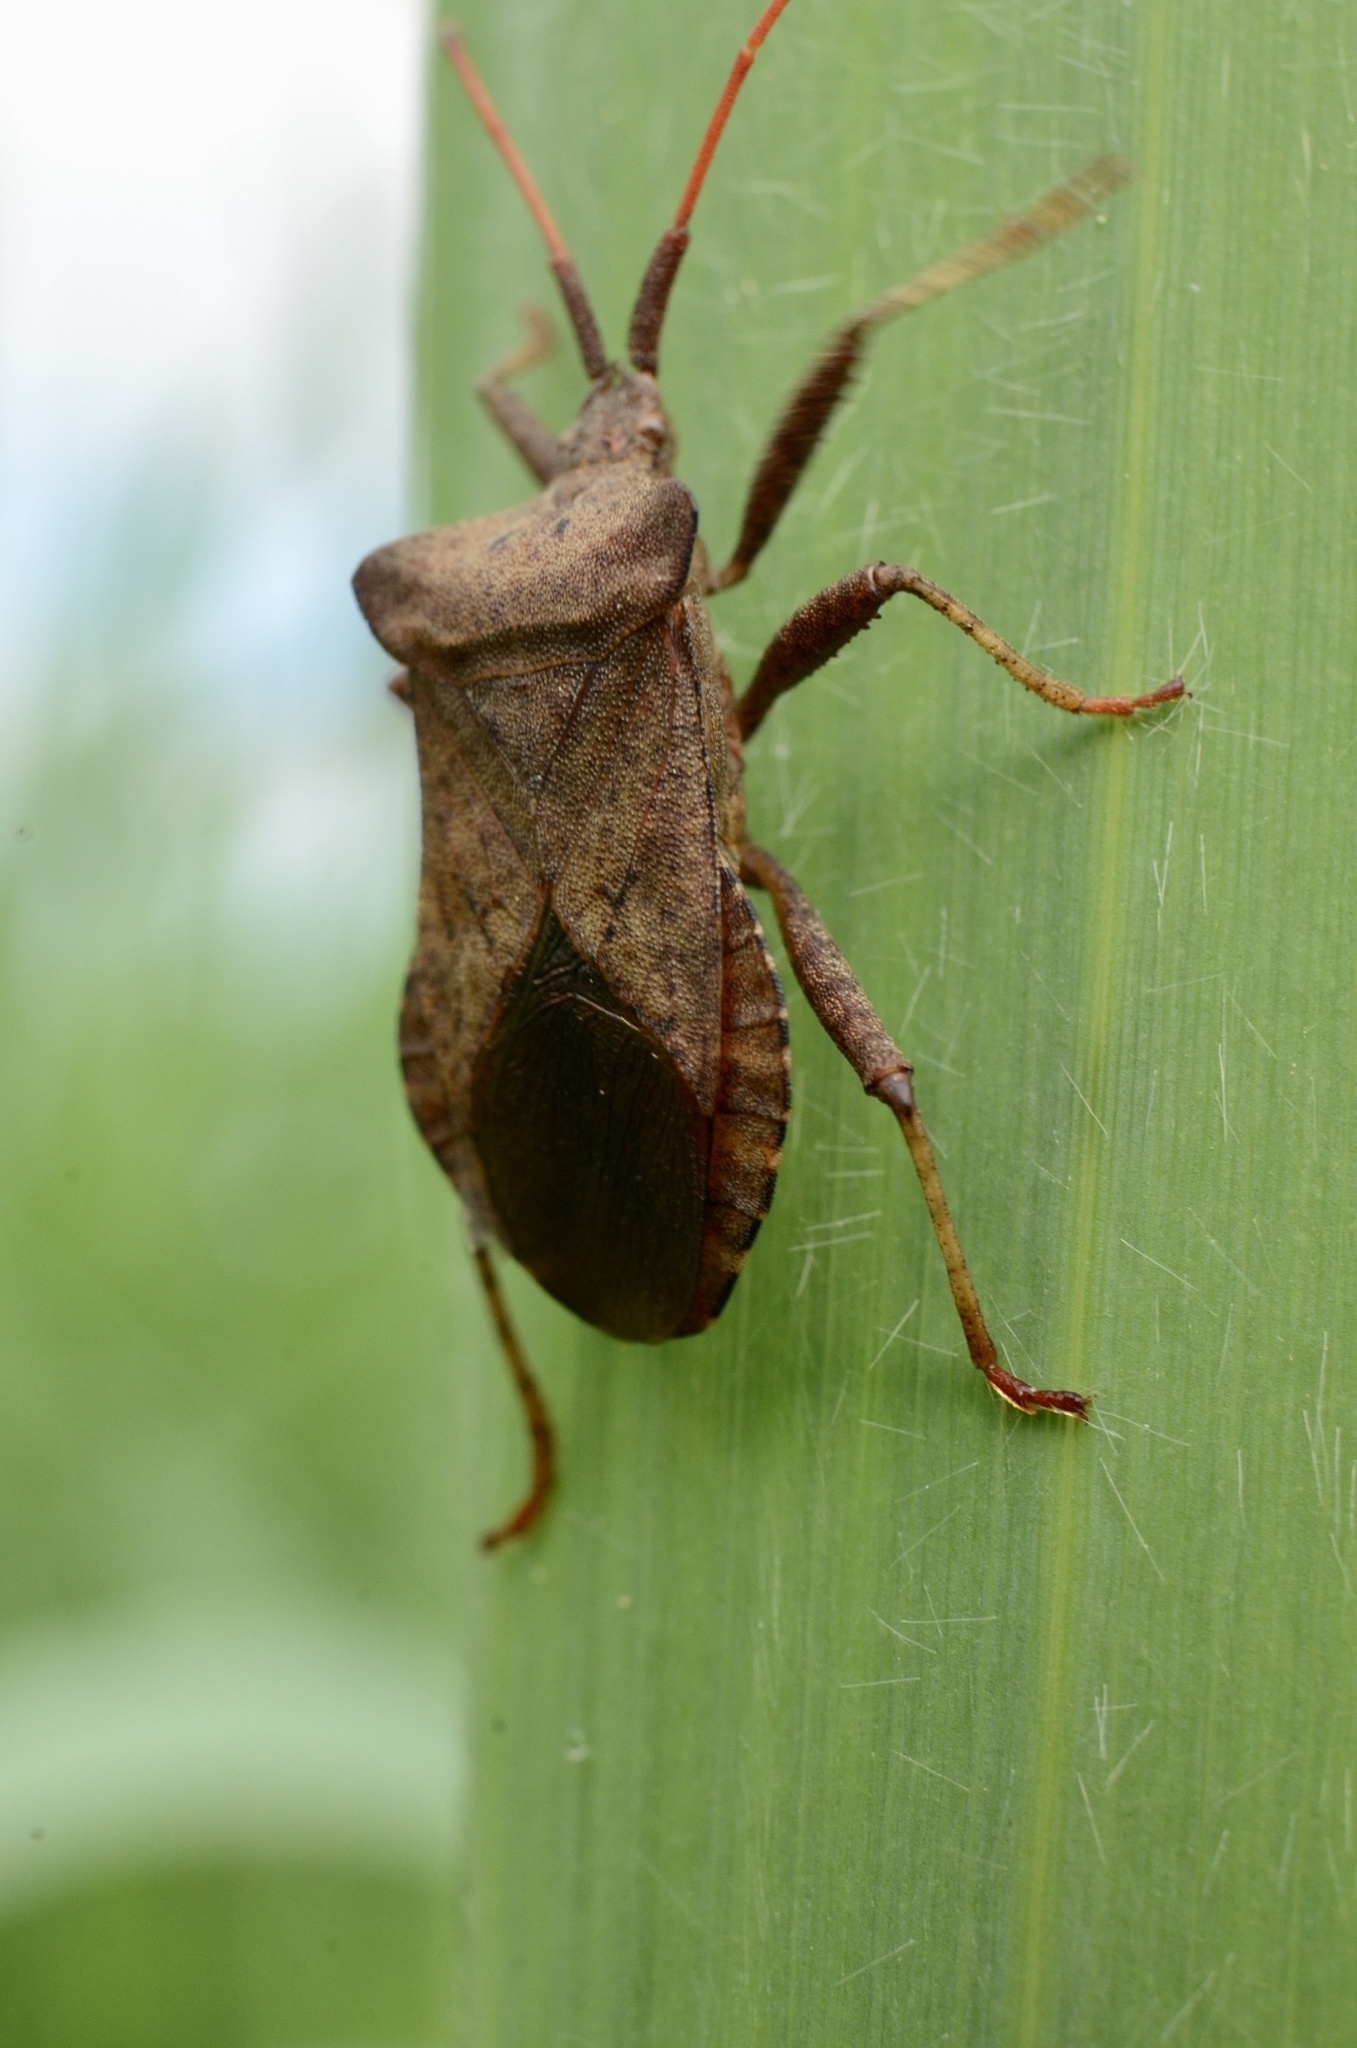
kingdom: Animalia
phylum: Arthropoda
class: Insecta
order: Hemiptera
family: Coreidae
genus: Coreus
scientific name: Coreus marginatus
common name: Dock bug
